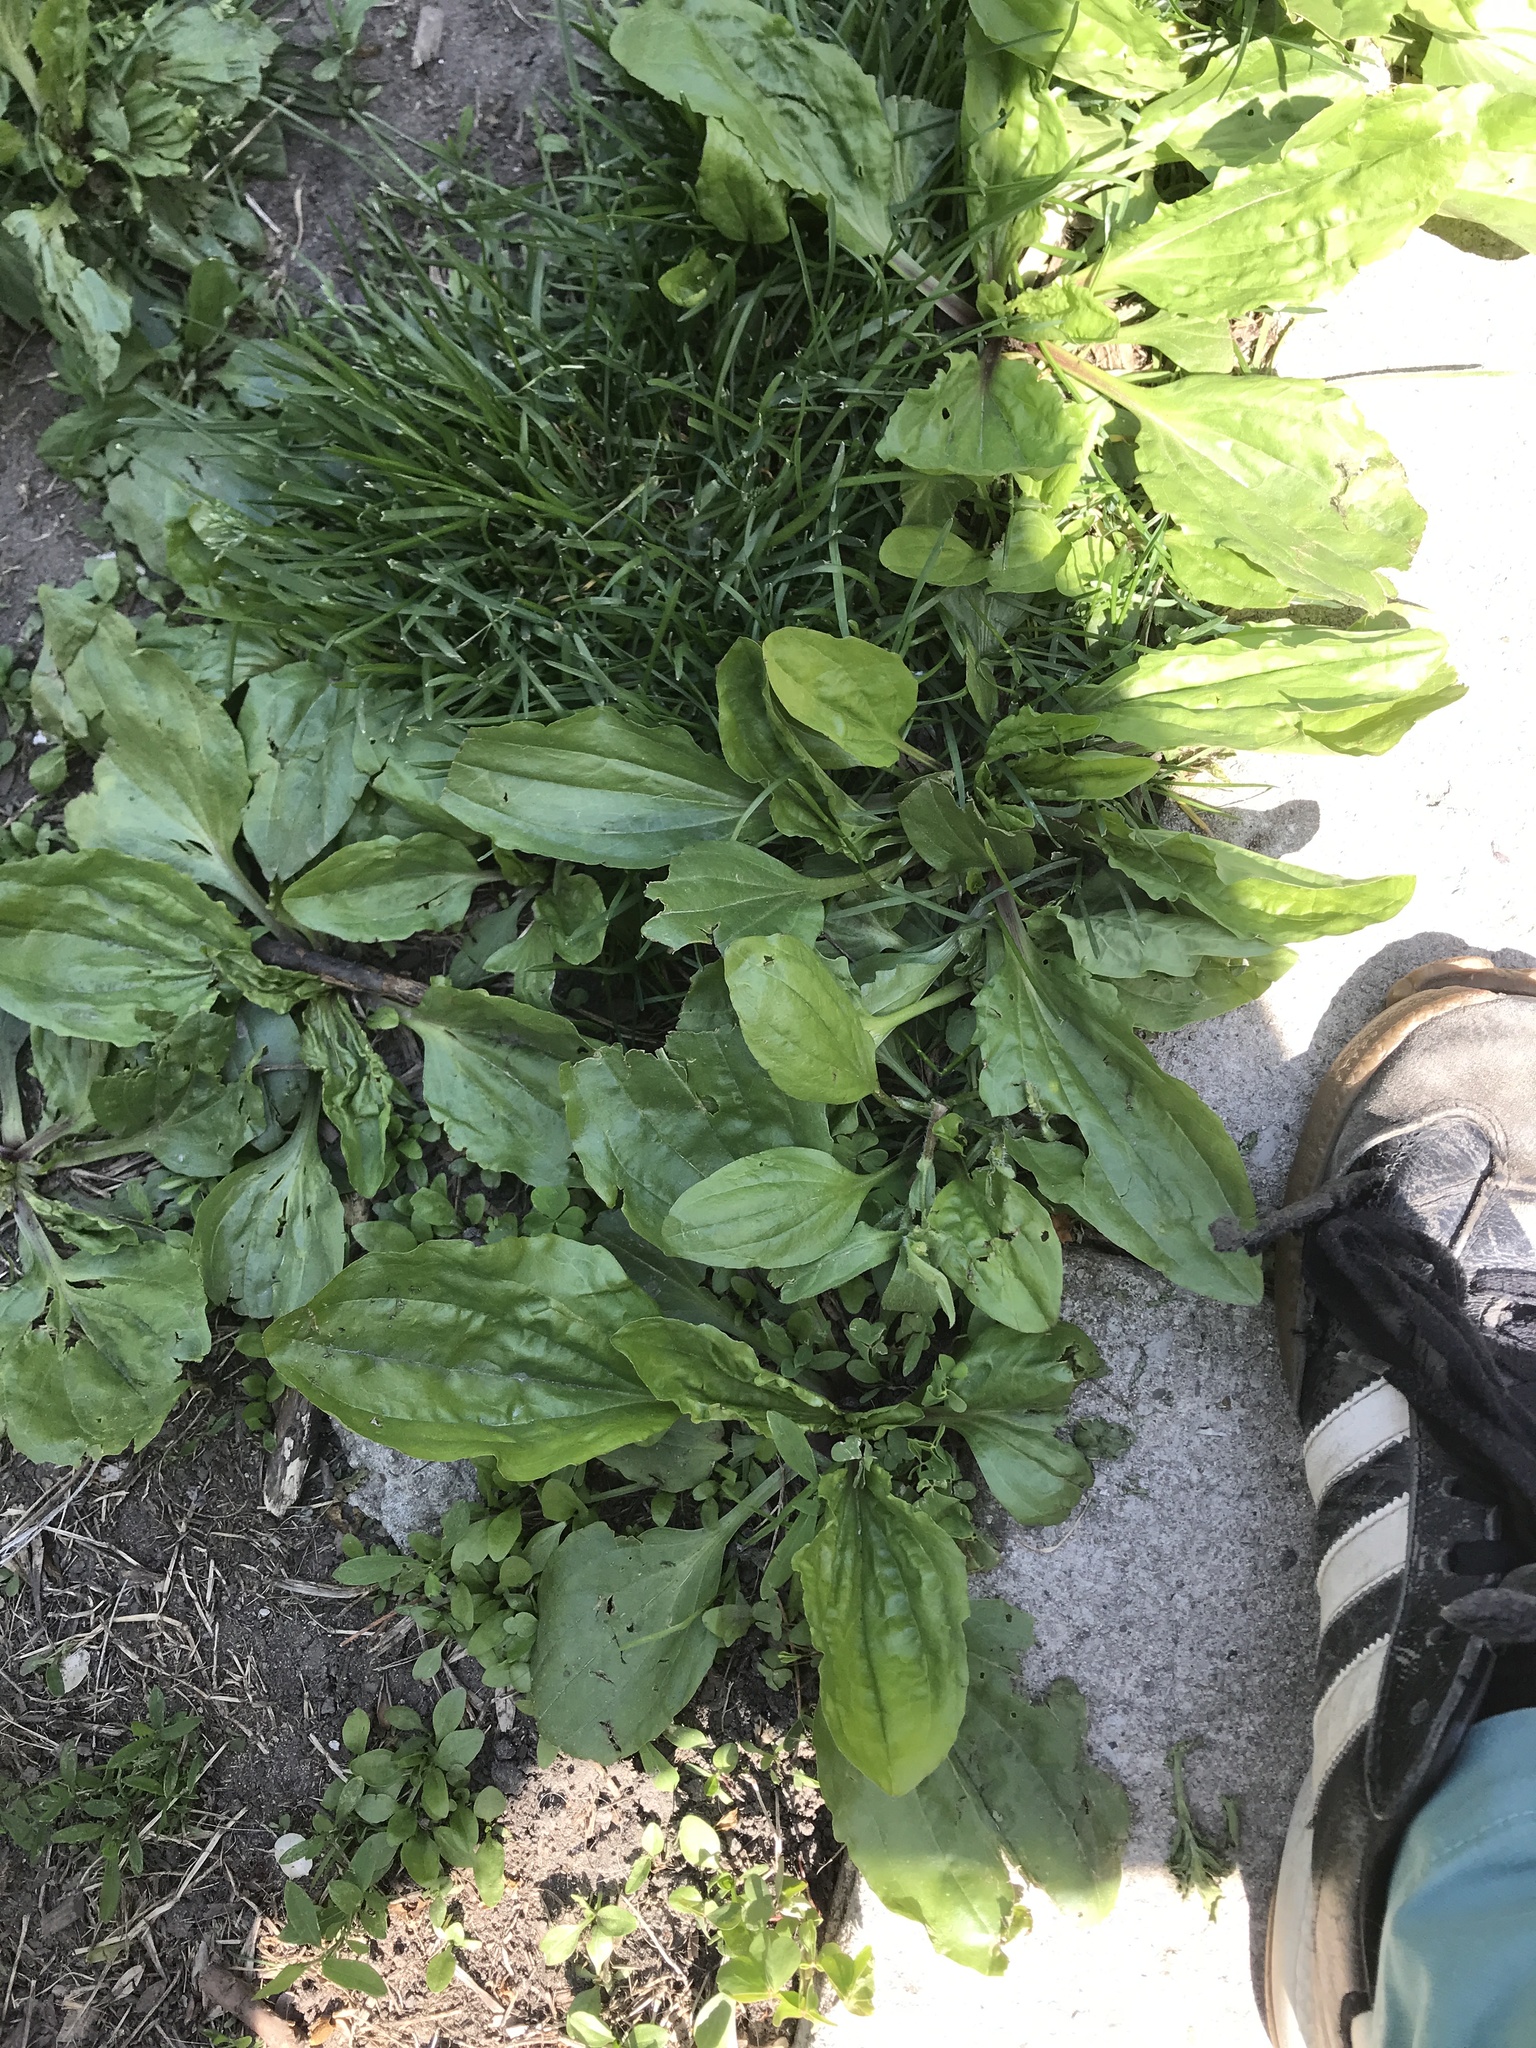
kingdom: Plantae
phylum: Tracheophyta
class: Magnoliopsida
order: Lamiales
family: Plantaginaceae
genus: Plantago
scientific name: Plantago rugelii
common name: American plantain
